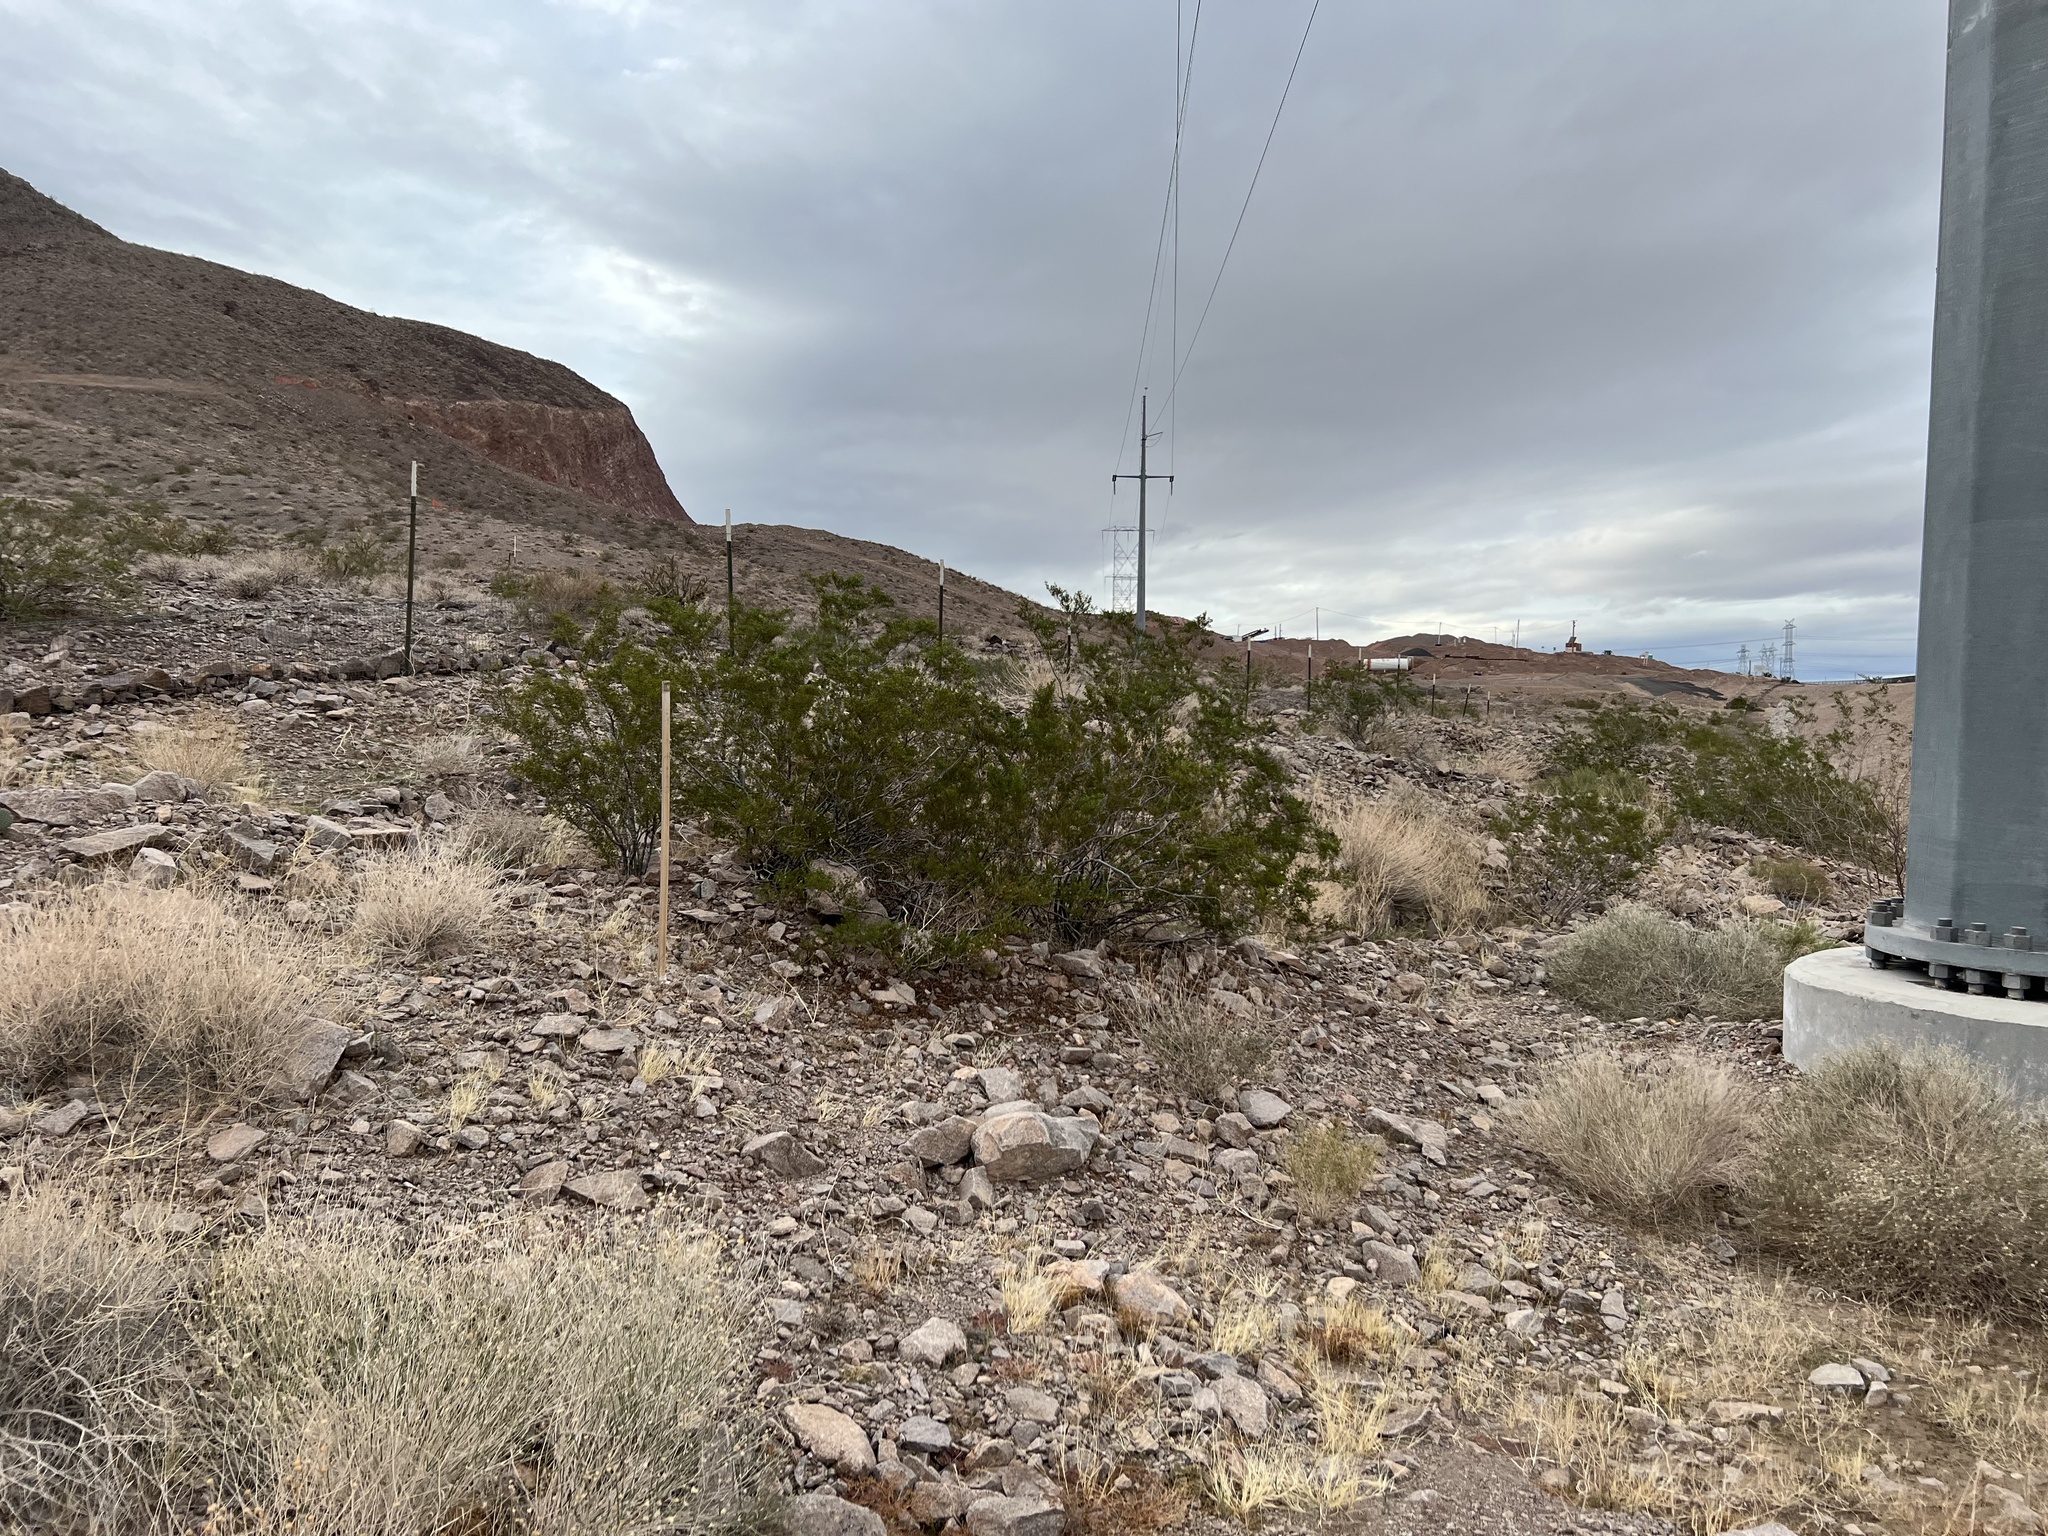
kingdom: Plantae
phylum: Tracheophyta
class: Magnoliopsida
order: Zygophyllales
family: Zygophyllaceae
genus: Larrea
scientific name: Larrea tridentata
